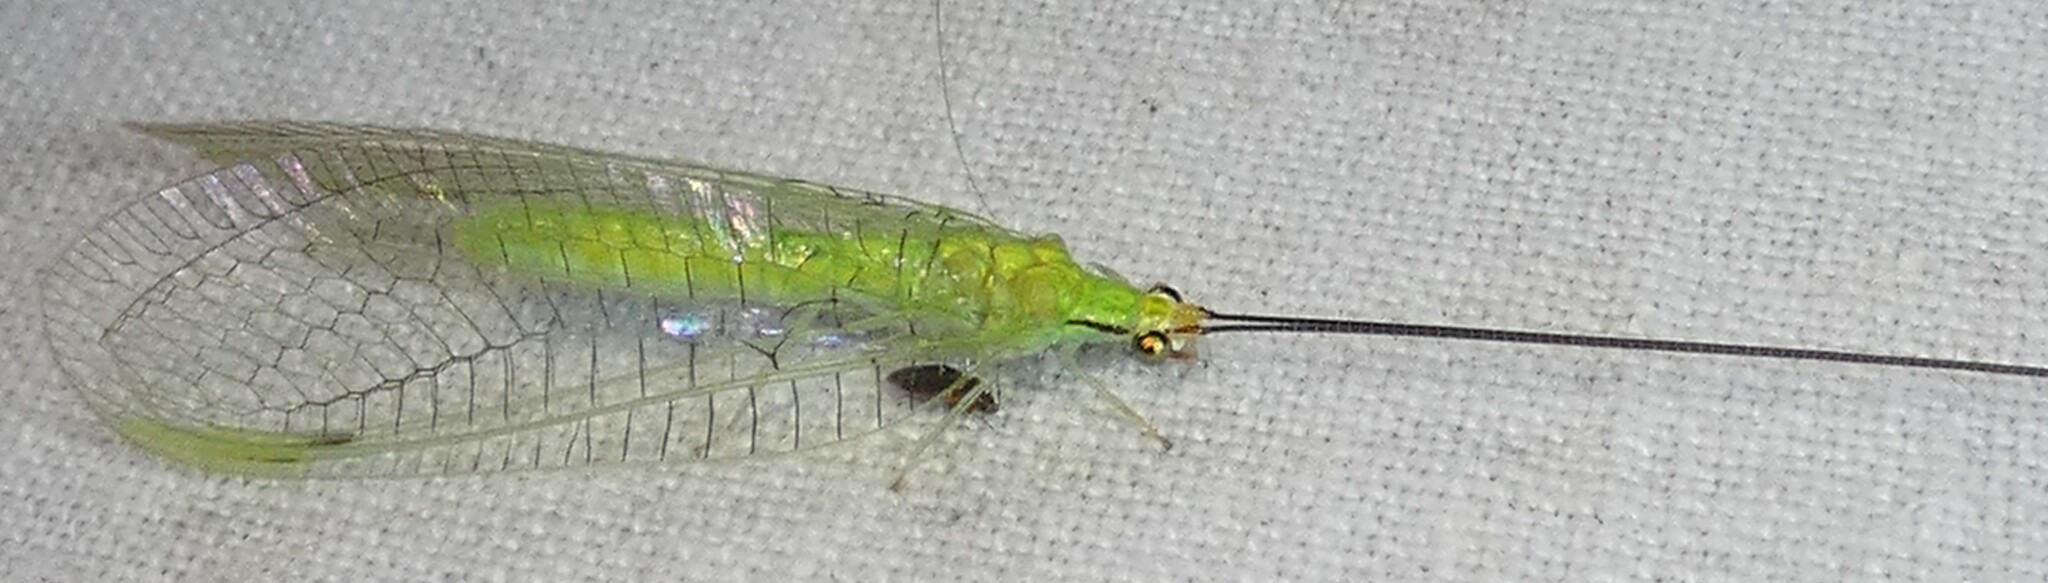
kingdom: Animalia
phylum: Arthropoda
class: Insecta
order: Neuroptera
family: Chrysopidae
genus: Leucochrysa
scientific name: Leucochrysa pavida
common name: Lichen-carrying green lacewing
